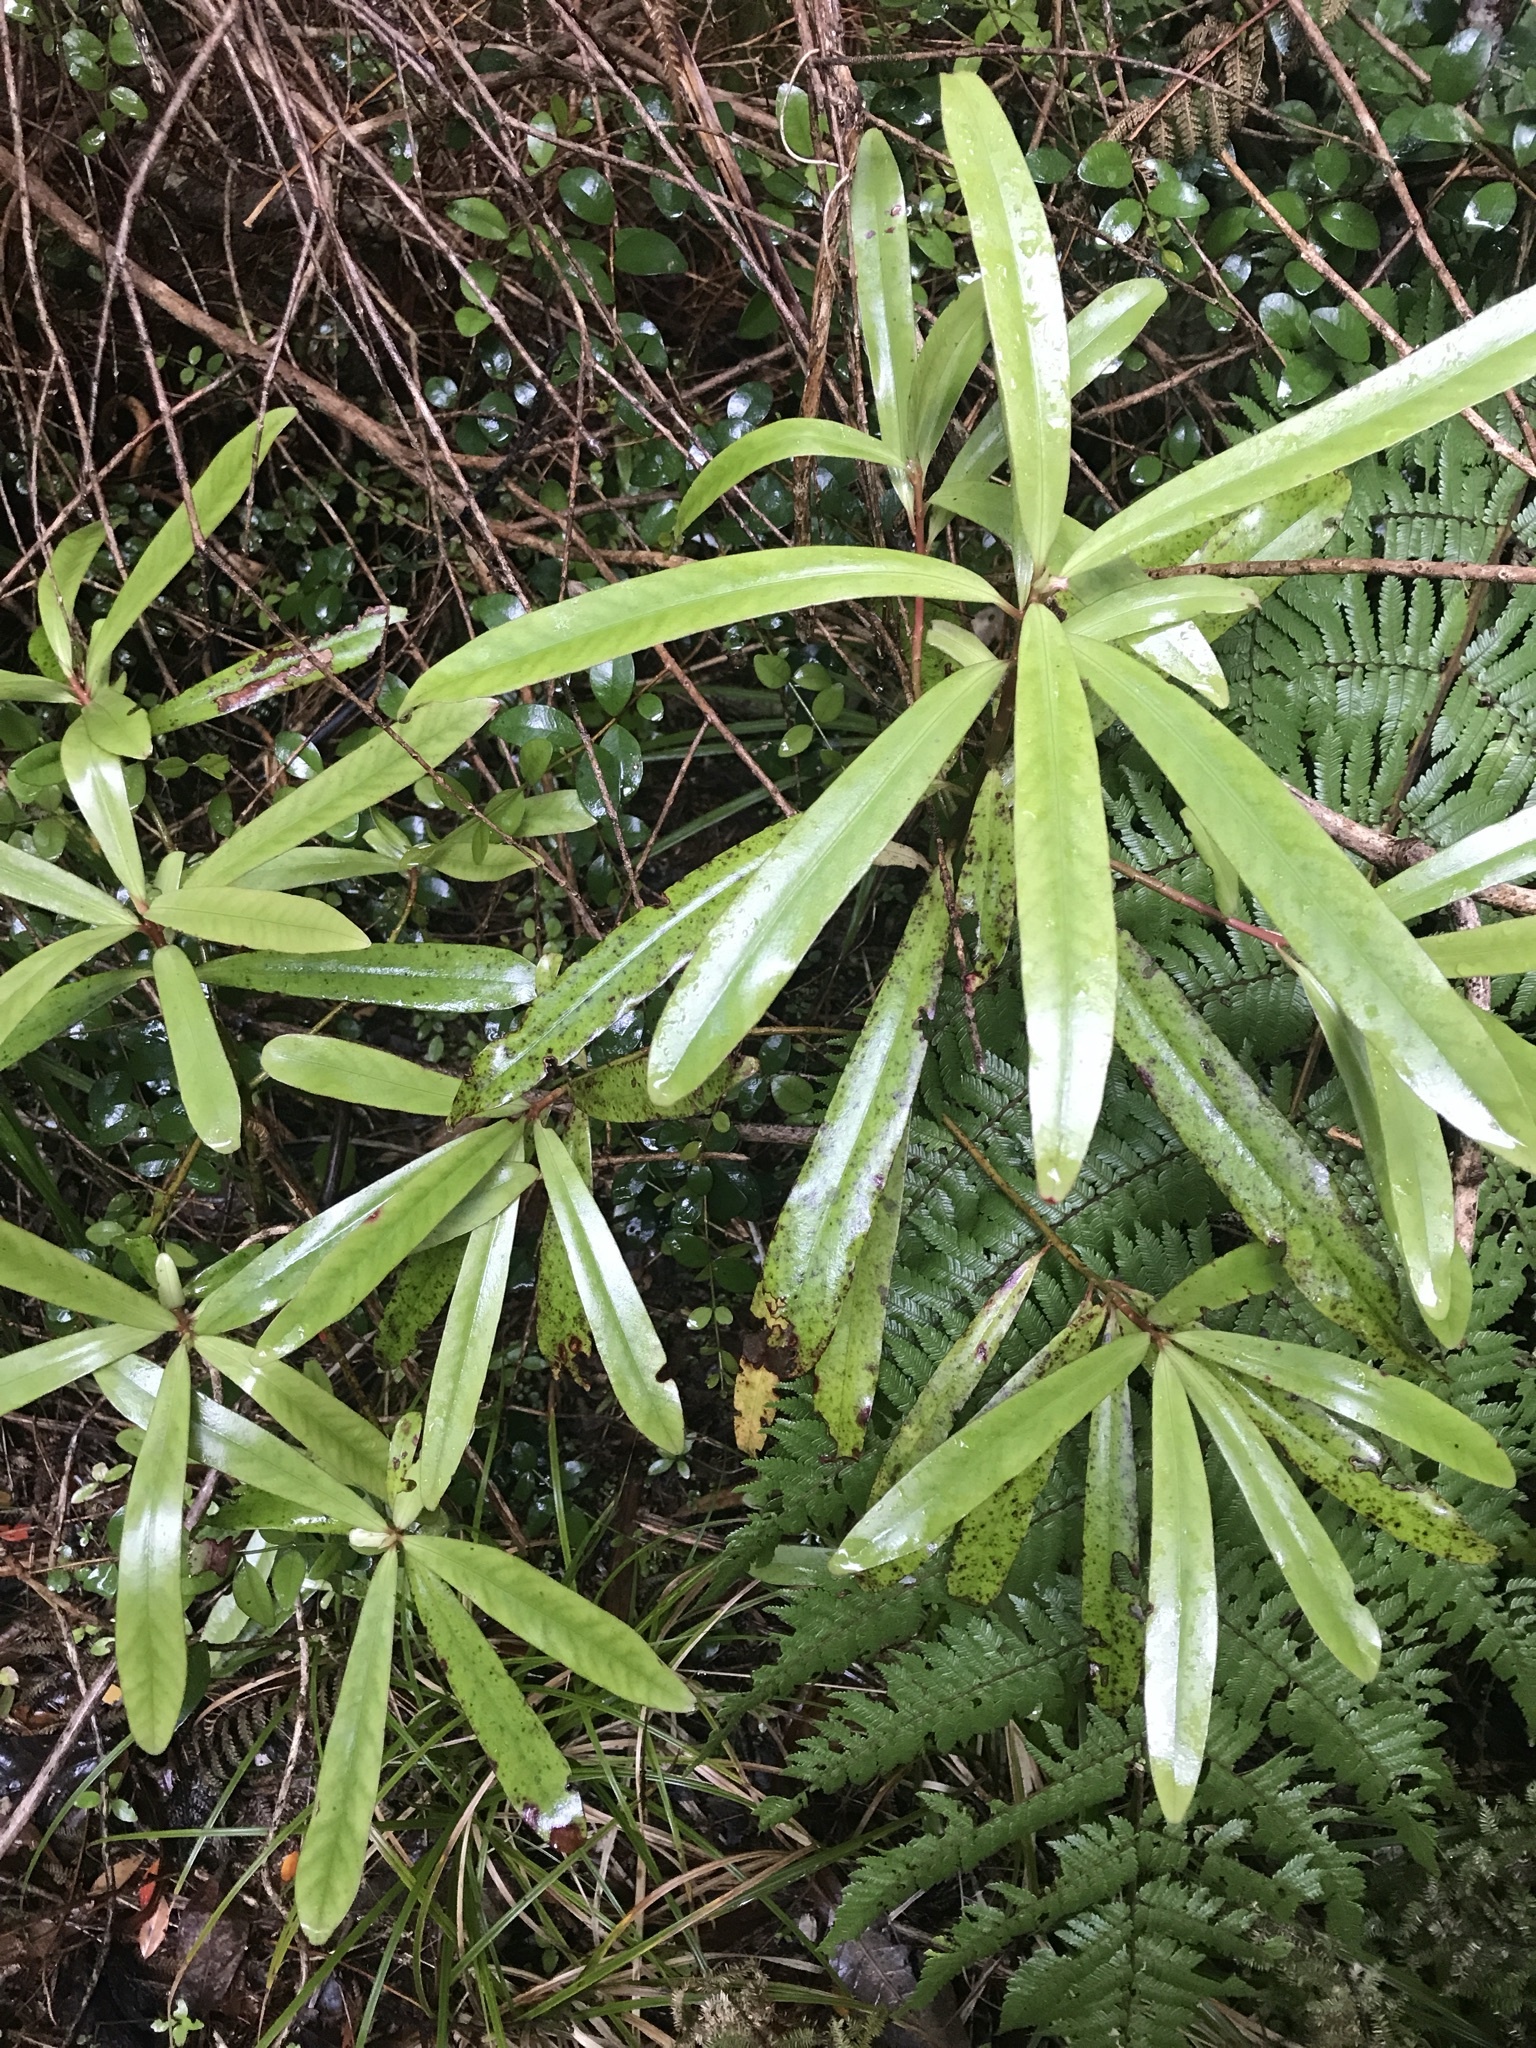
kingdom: Plantae
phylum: Tracheophyta
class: Magnoliopsida
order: Ericales
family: Primulaceae
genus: Myrsine
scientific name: Myrsine salicina
